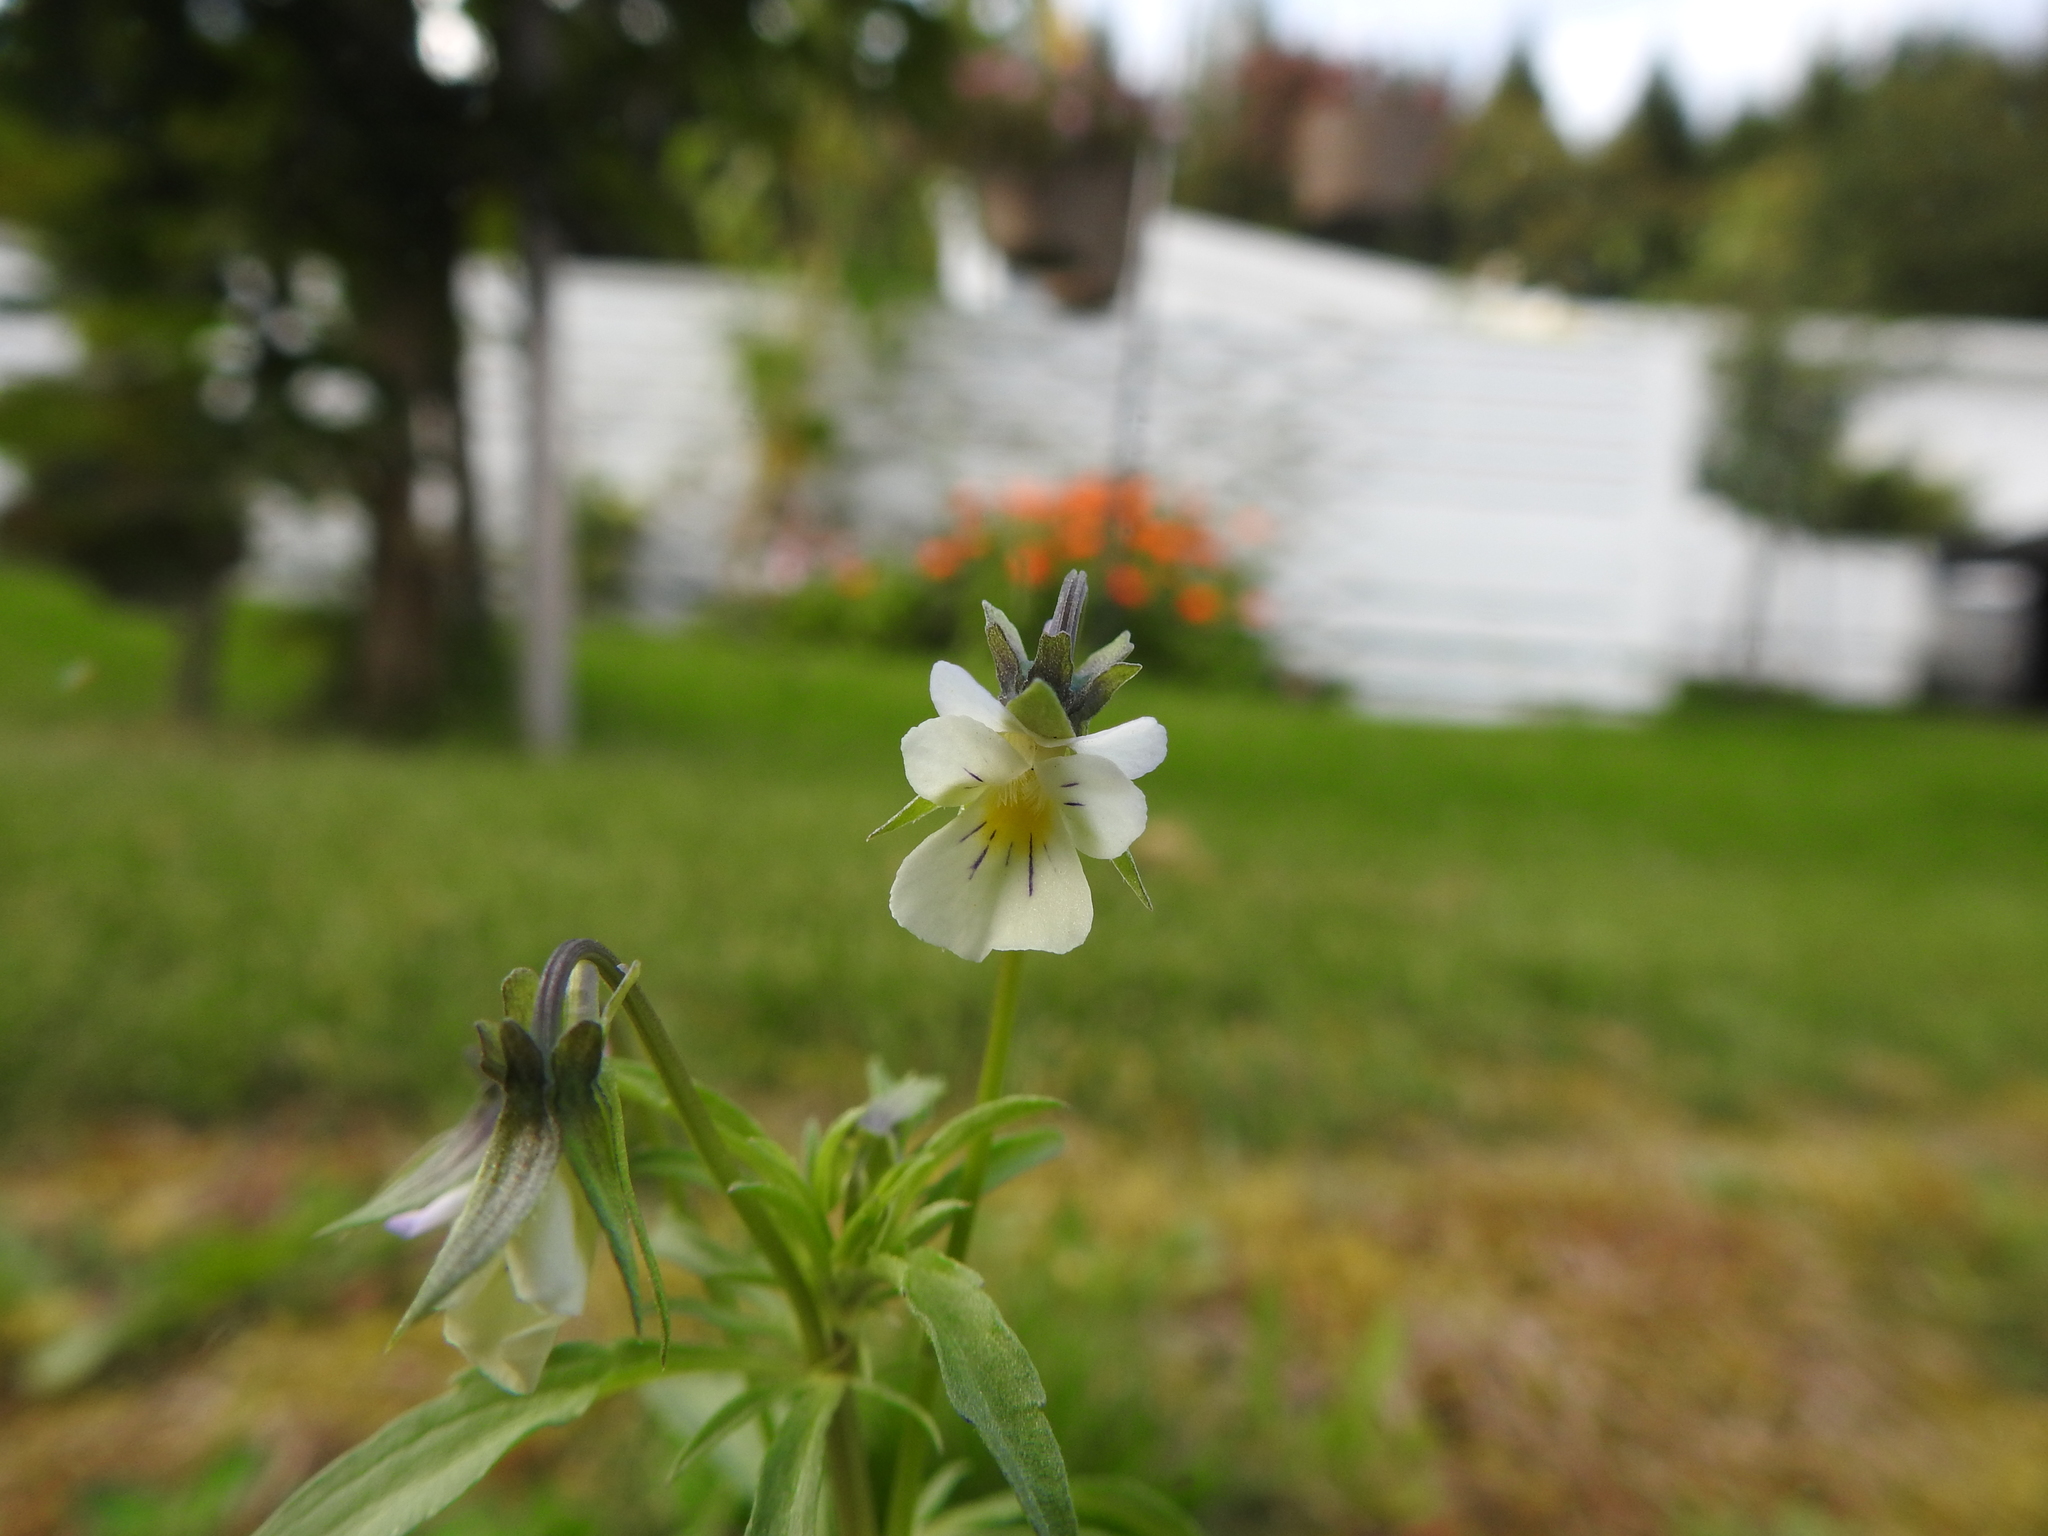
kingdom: Plantae
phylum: Tracheophyta
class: Magnoliopsida
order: Malpighiales
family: Violaceae
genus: Viola
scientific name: Viola arvensis
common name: Field pansy
